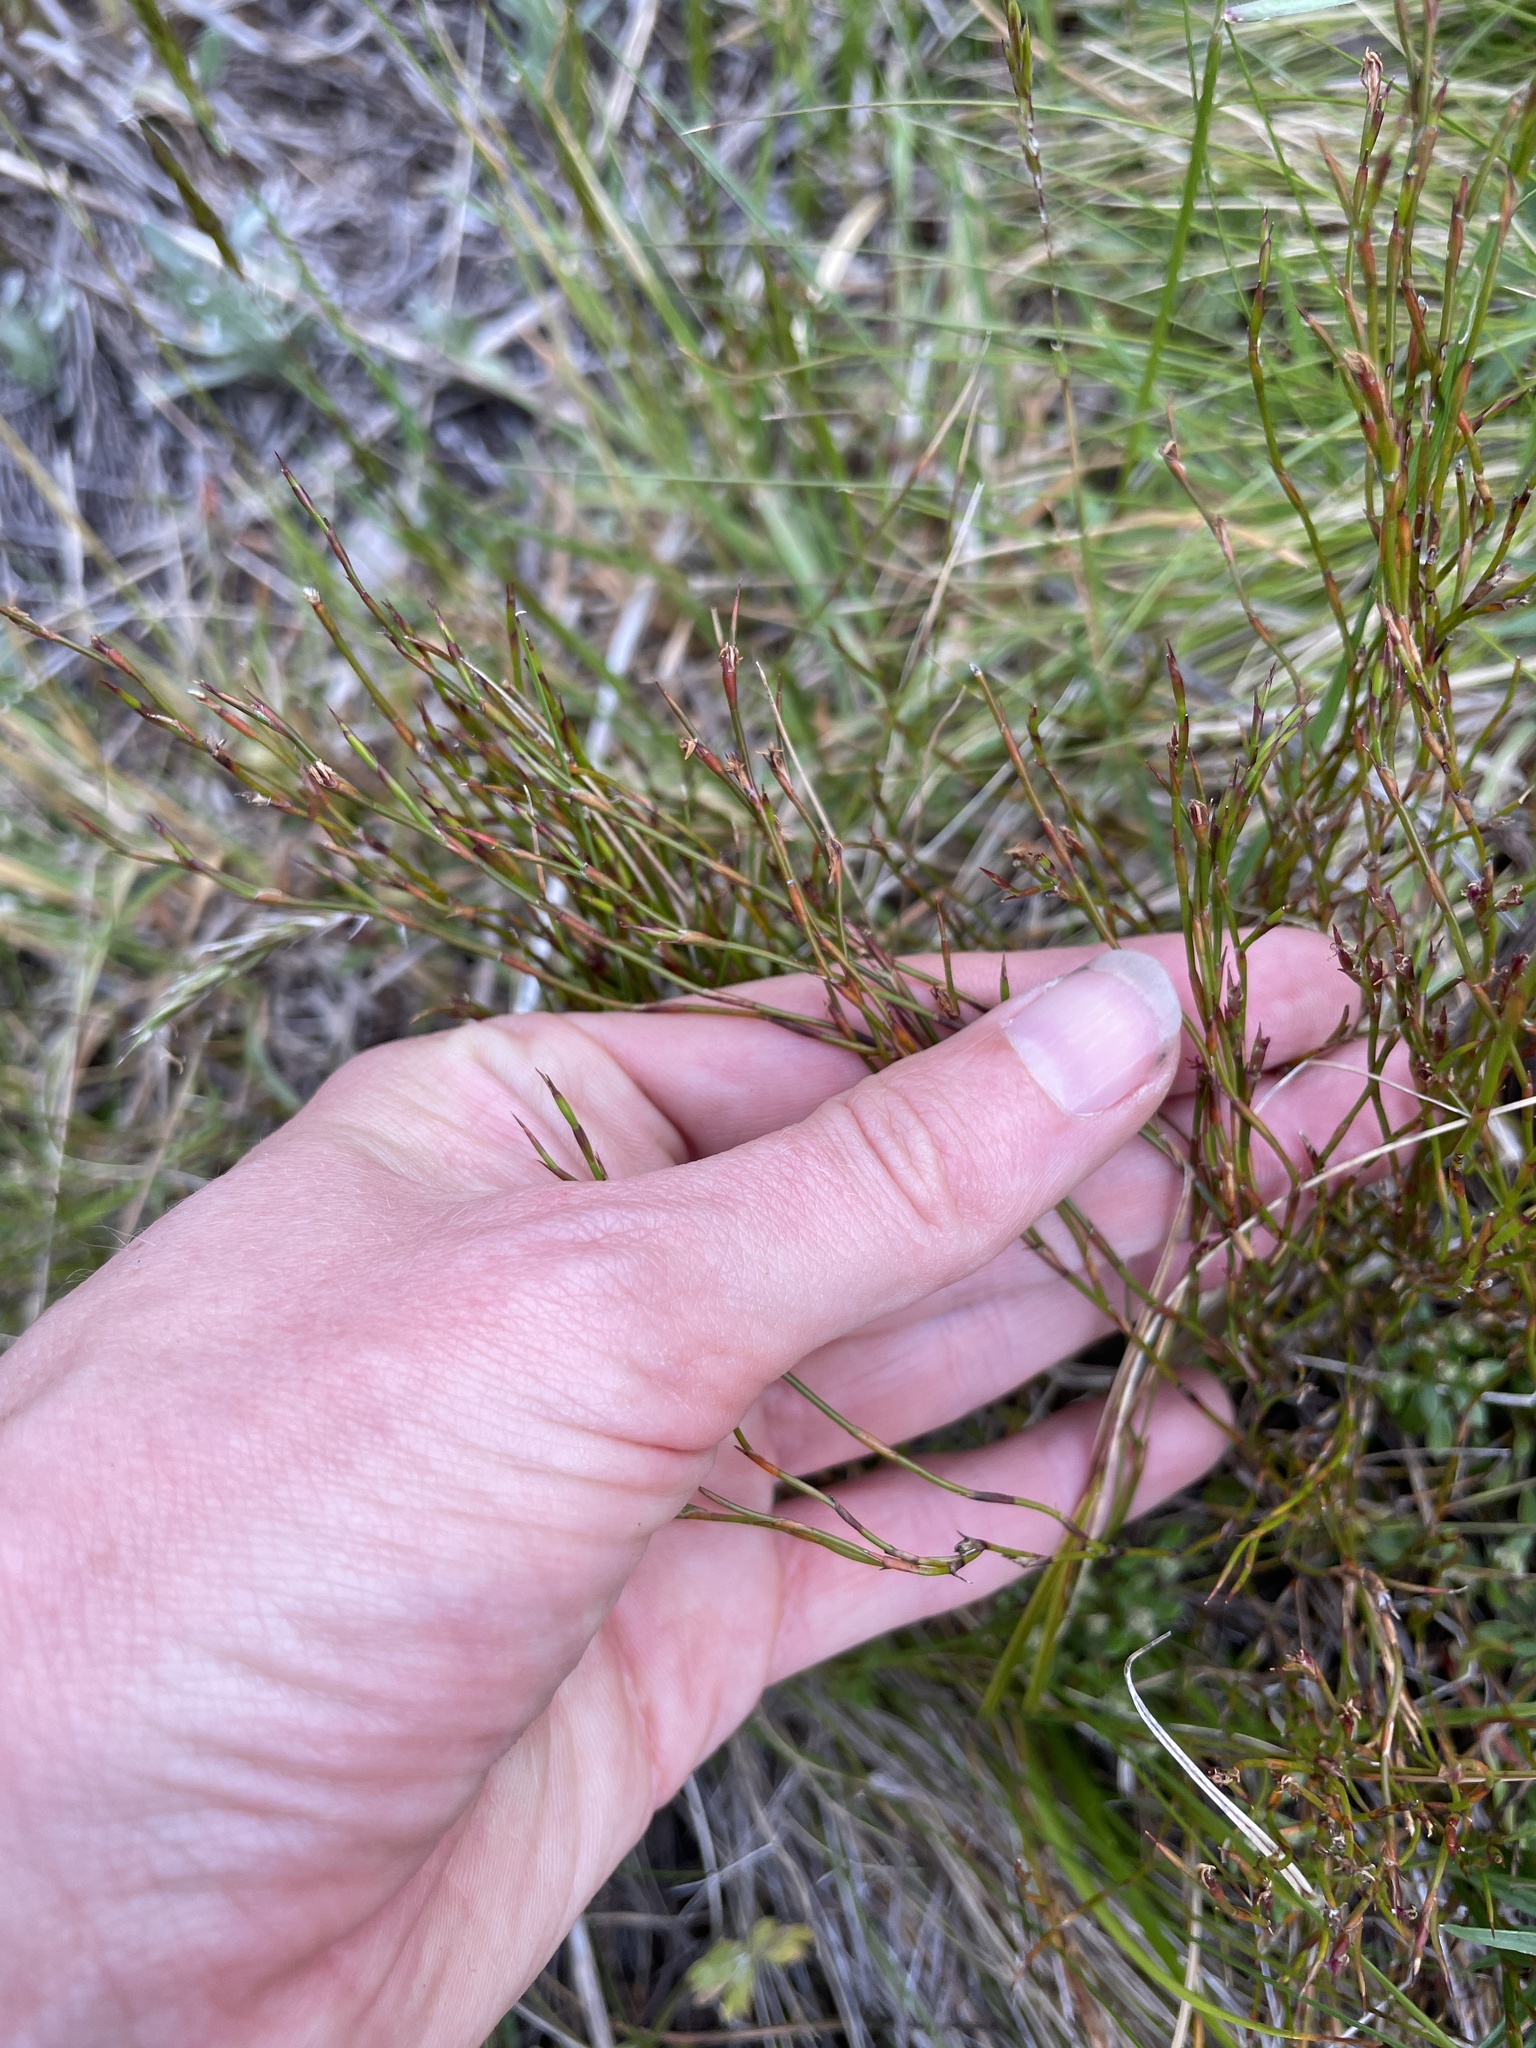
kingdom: Plantae
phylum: Tracheophyta
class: Liliopsida
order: Poales
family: Restionaceae
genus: Empodisma
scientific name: Empodisma minus
